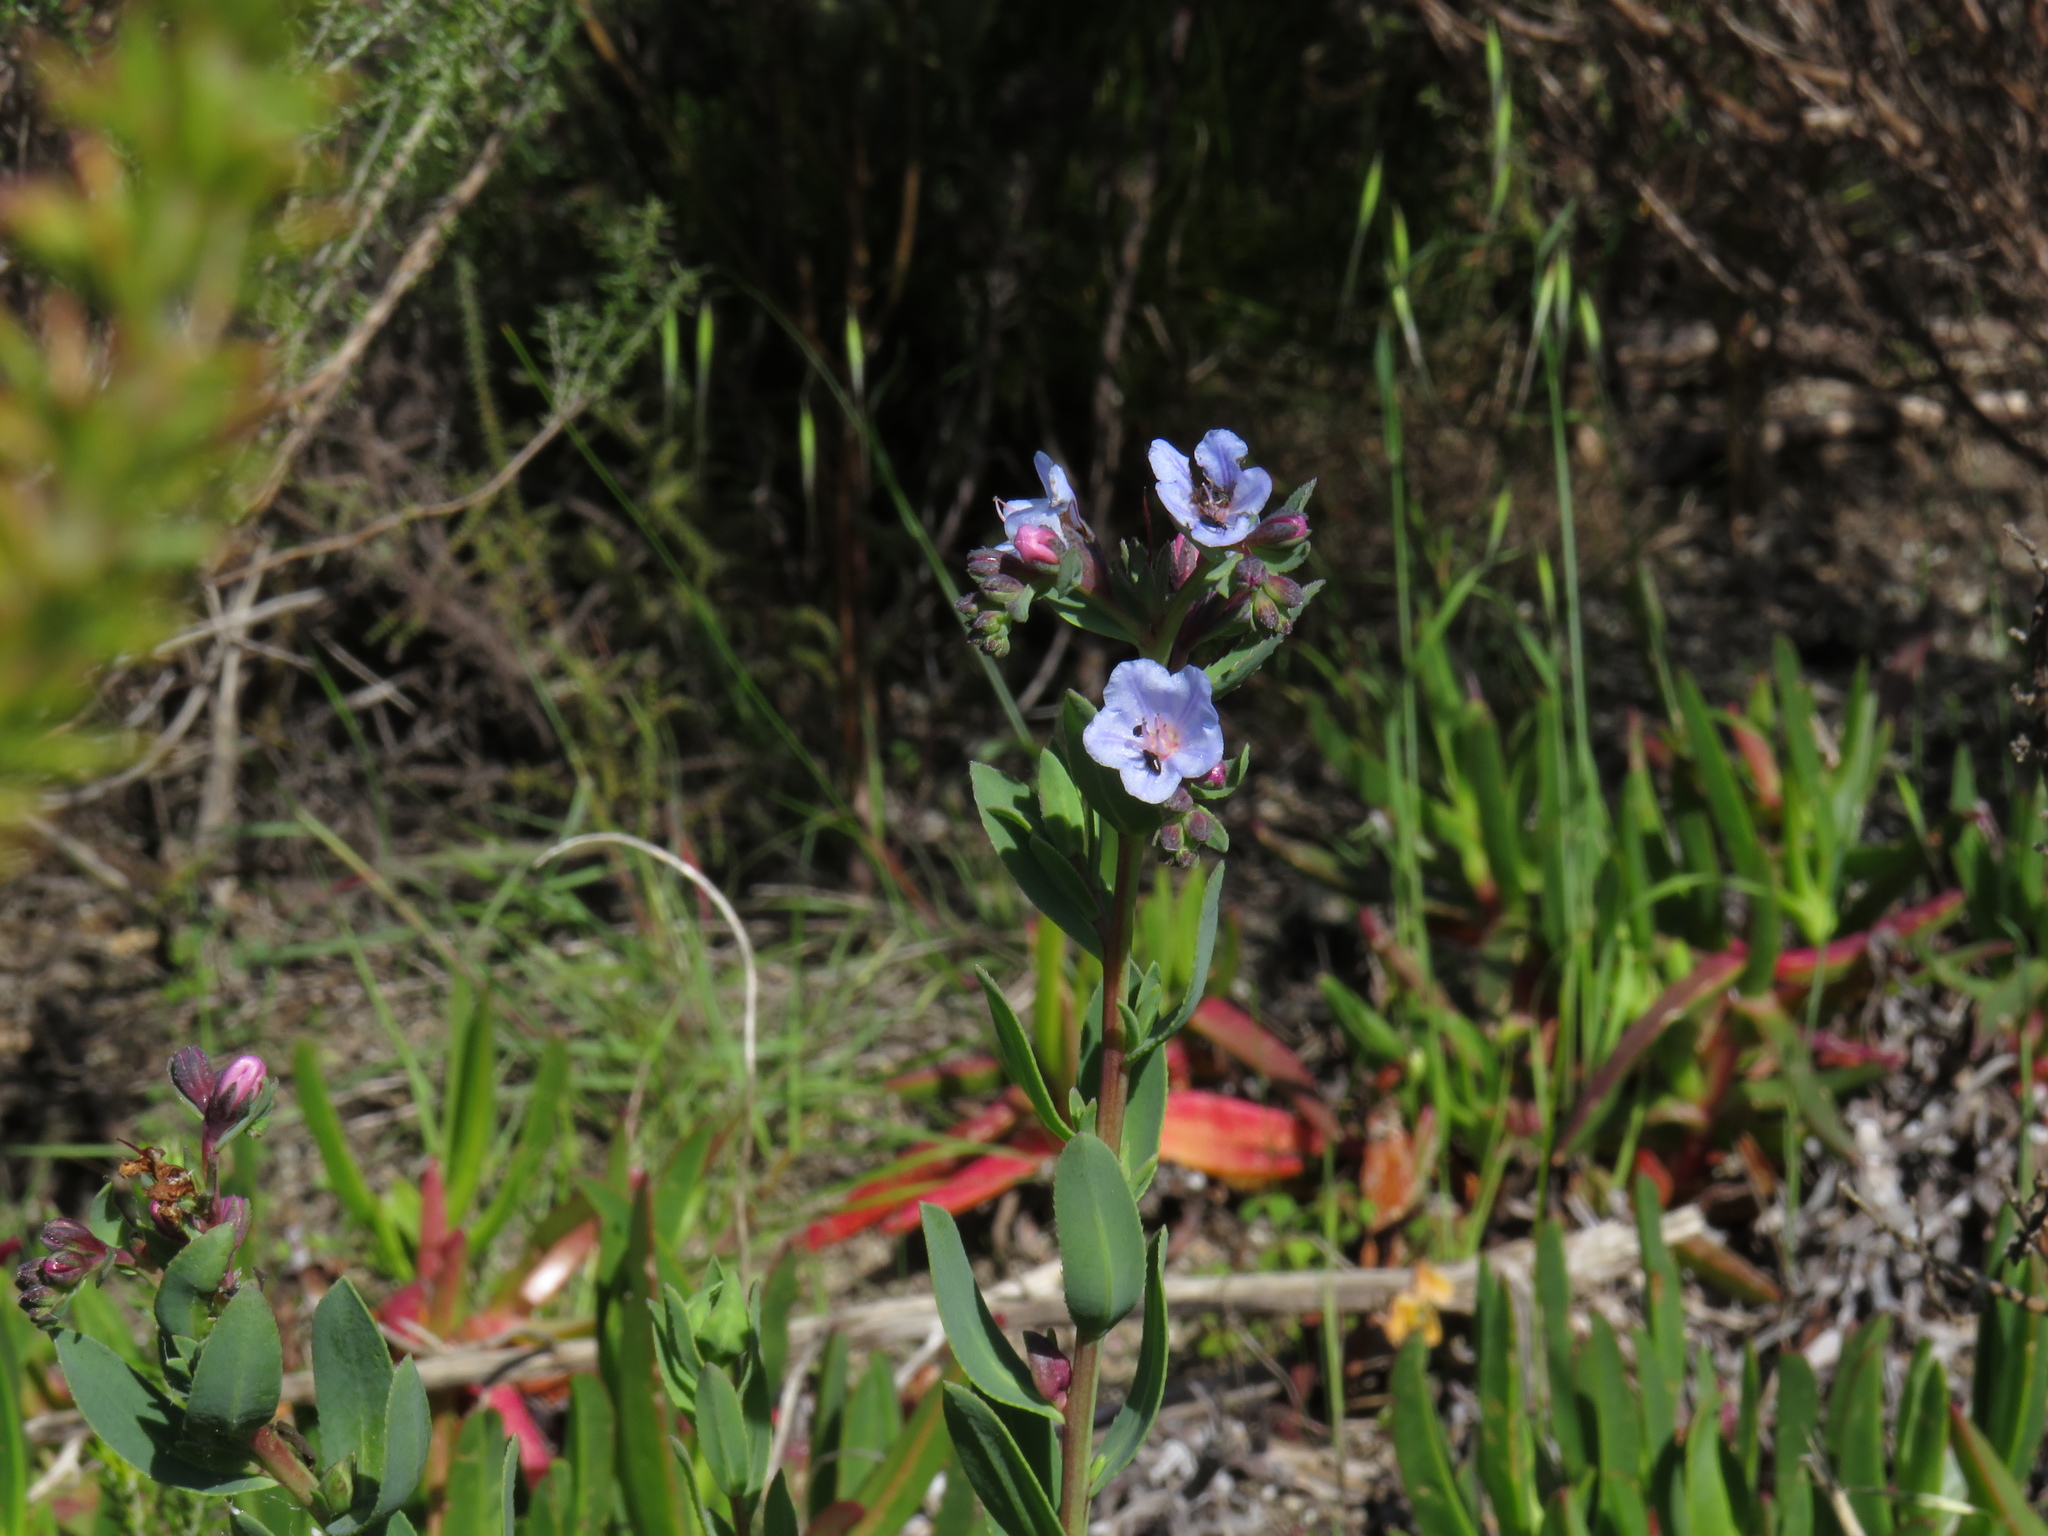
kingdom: Plantae
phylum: Tracheophyta
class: Magnoliopsida
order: Boraginales
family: Boraginaceae
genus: Lobostemon
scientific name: Lobostemon glaucophyllus
